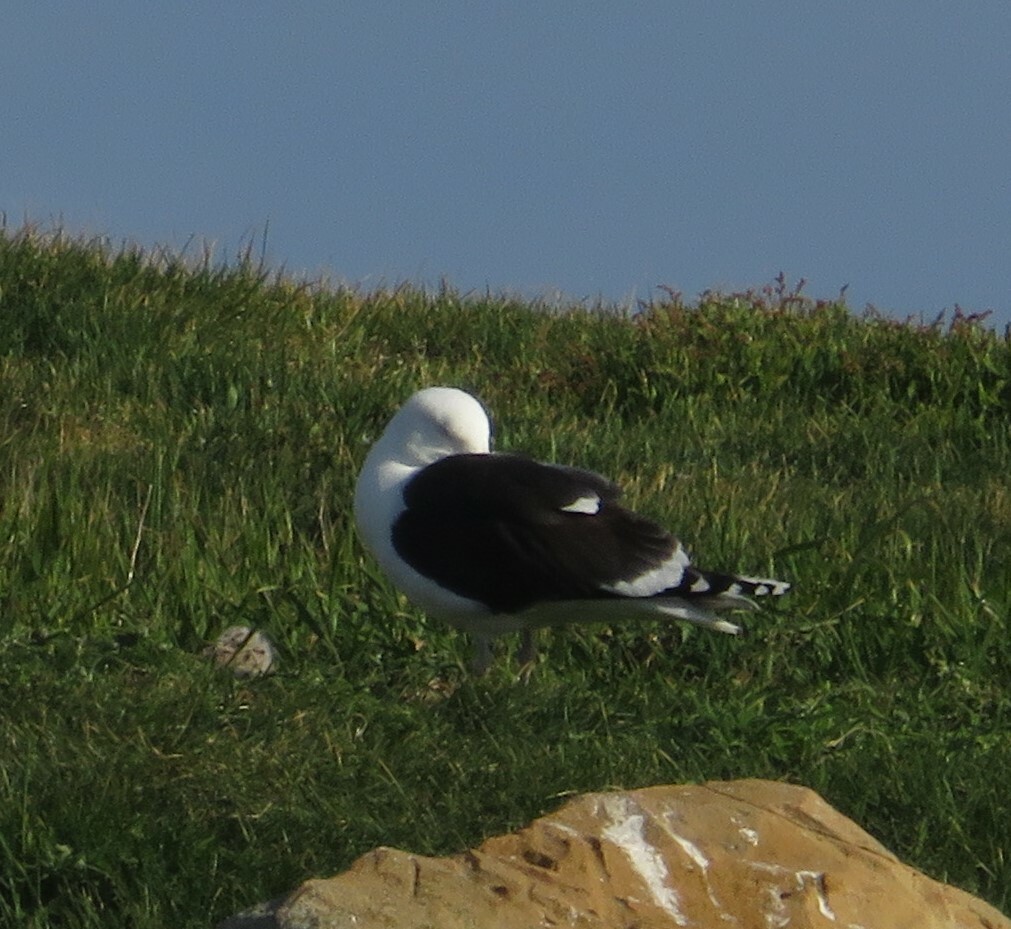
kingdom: Animalia
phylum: Chordata
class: Aves
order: Charadriiformes
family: Laridae
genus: Larus
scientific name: Larus marinus
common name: Great black-backed gull
